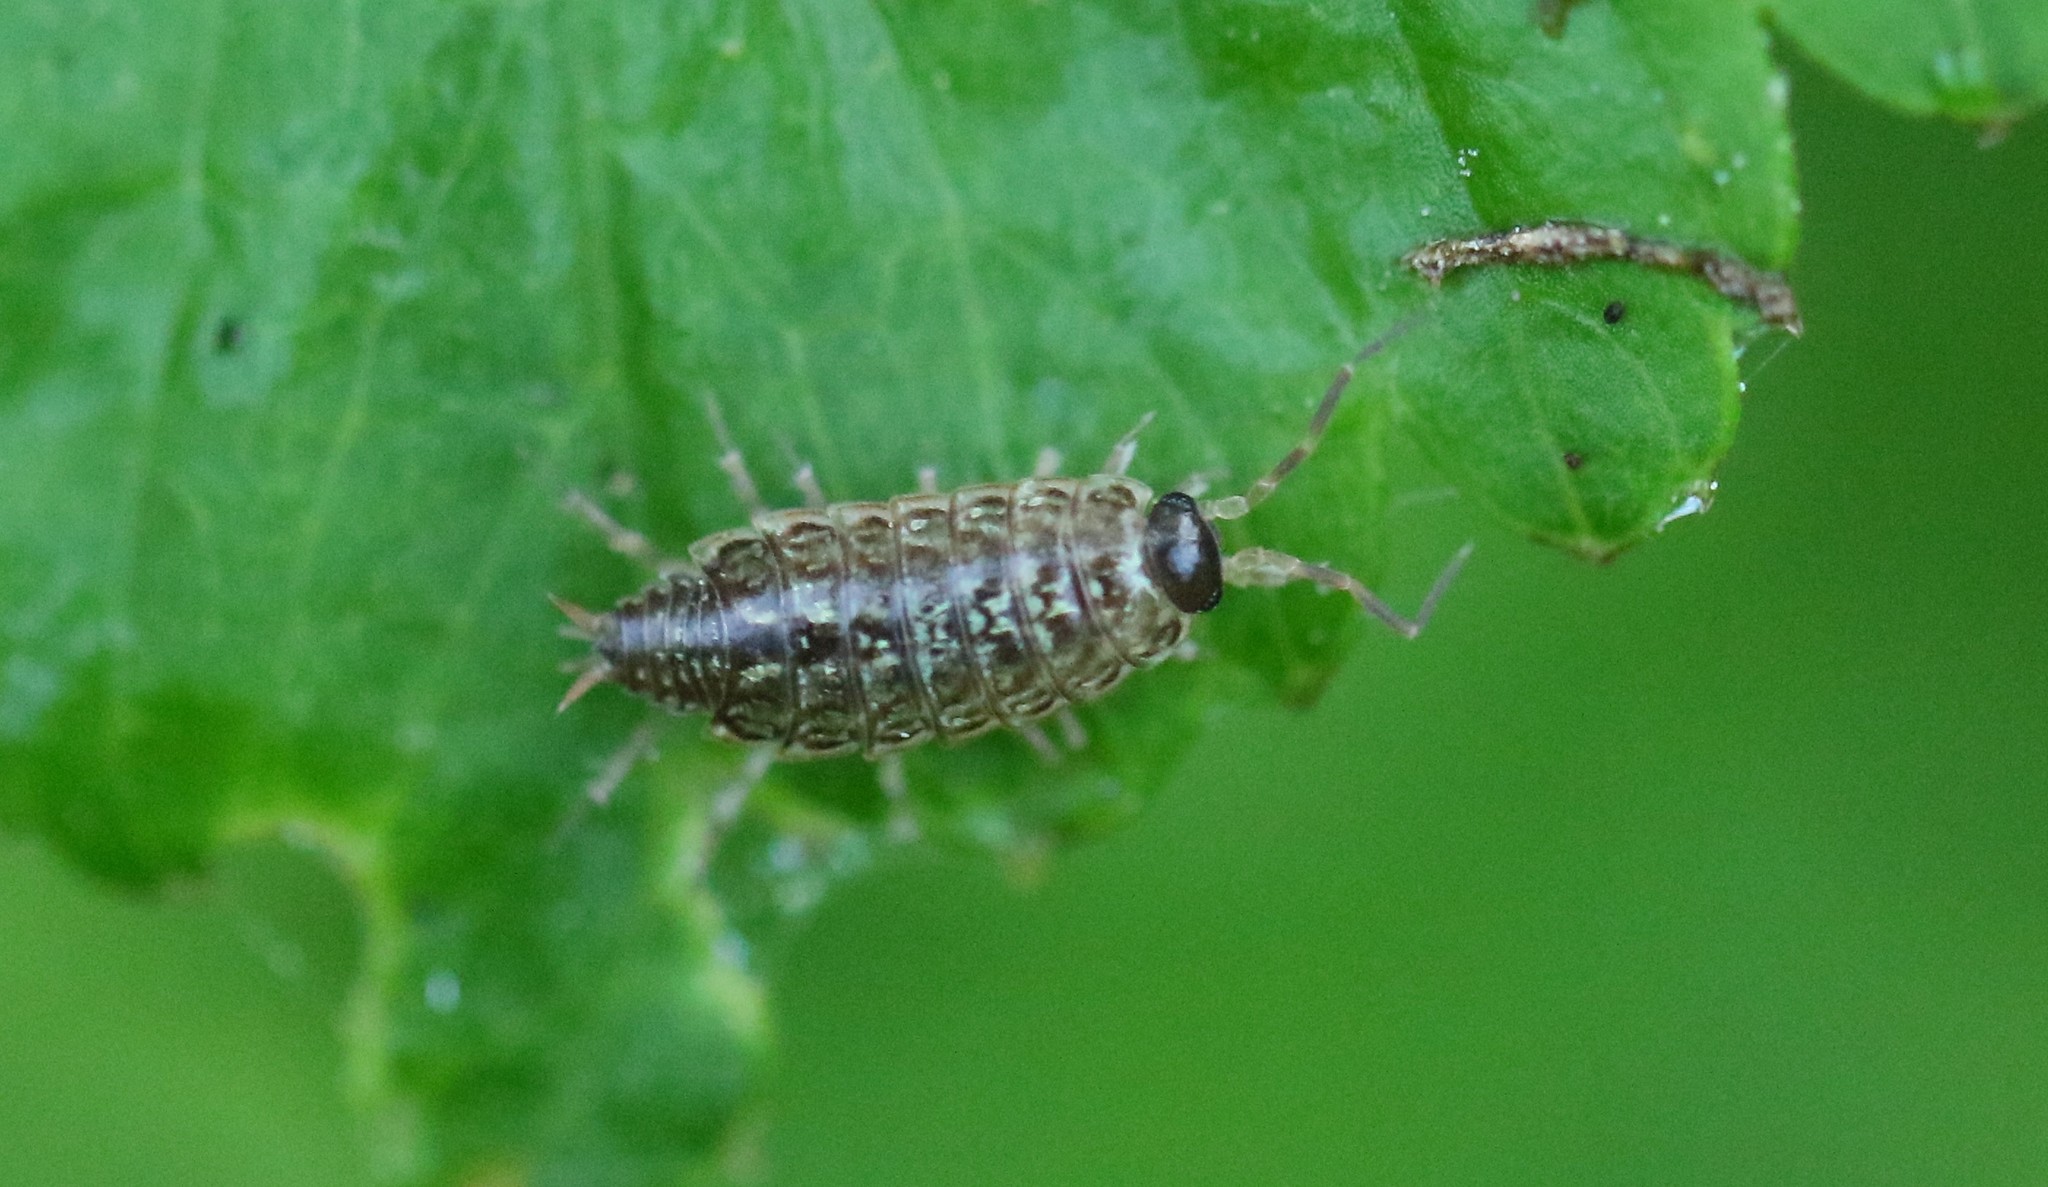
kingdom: Animalia
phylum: Arthropoda
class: Malacostraca
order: Isopoda
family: Philosciidae
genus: Philoscia
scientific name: Philoscia muscorum
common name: Common striped woodlouse
